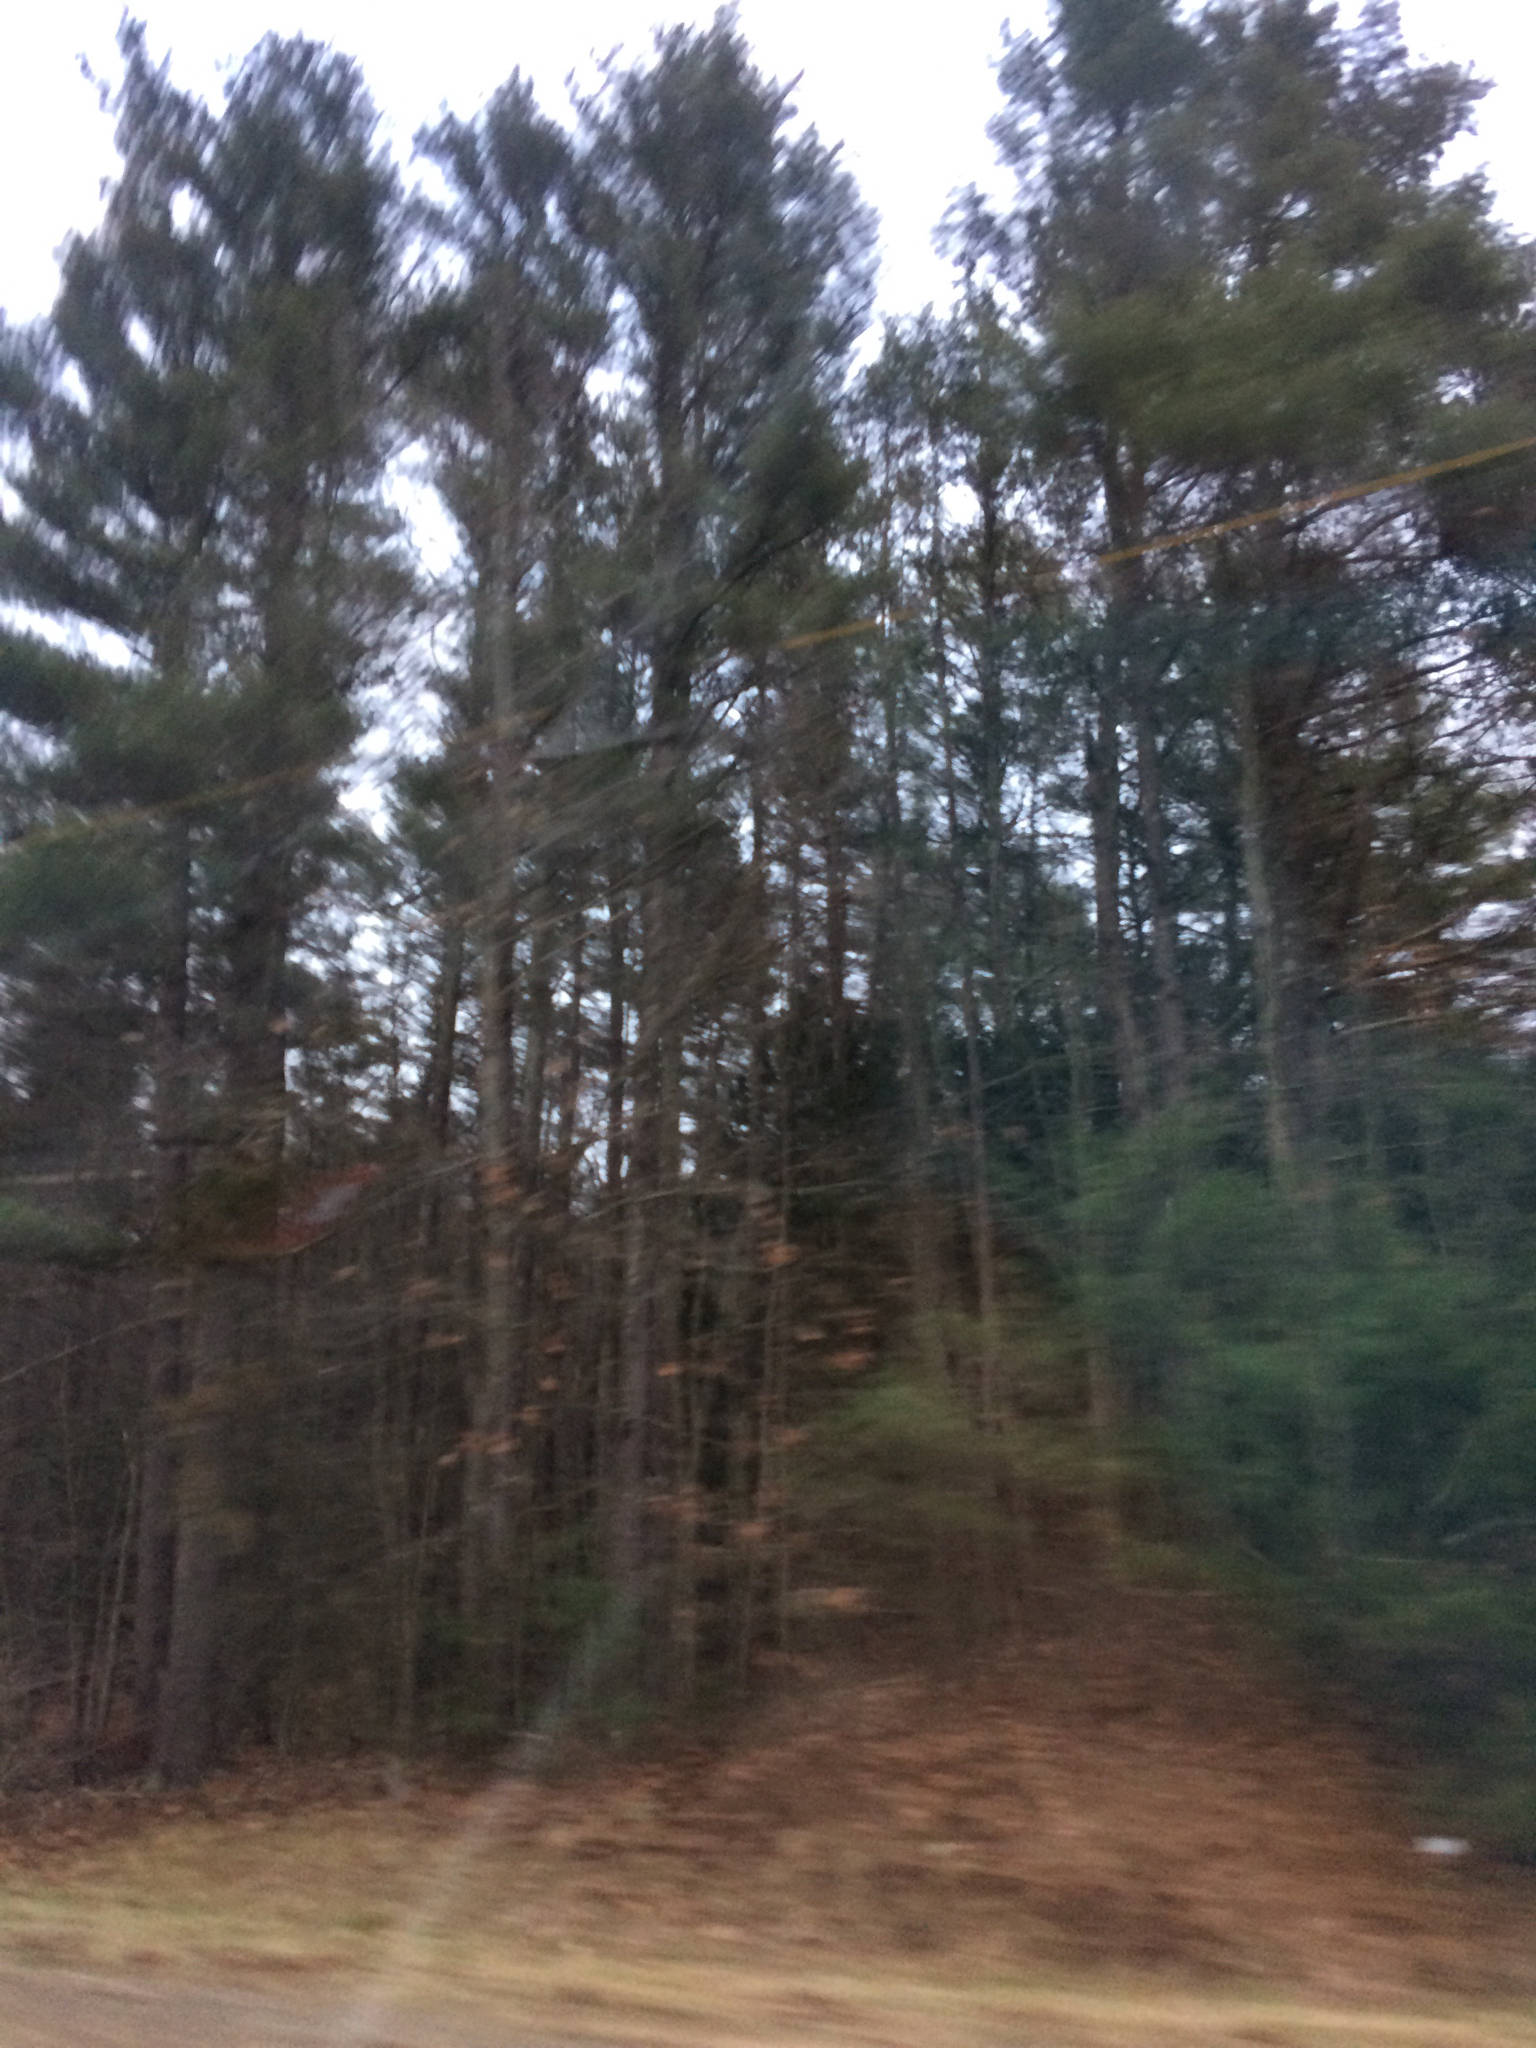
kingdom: Plantae
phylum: Tracheophyta
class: Pinopsida
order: Pinales
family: Pinaceae
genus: Pinus
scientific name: Pinus strobus
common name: Weymouth pine
